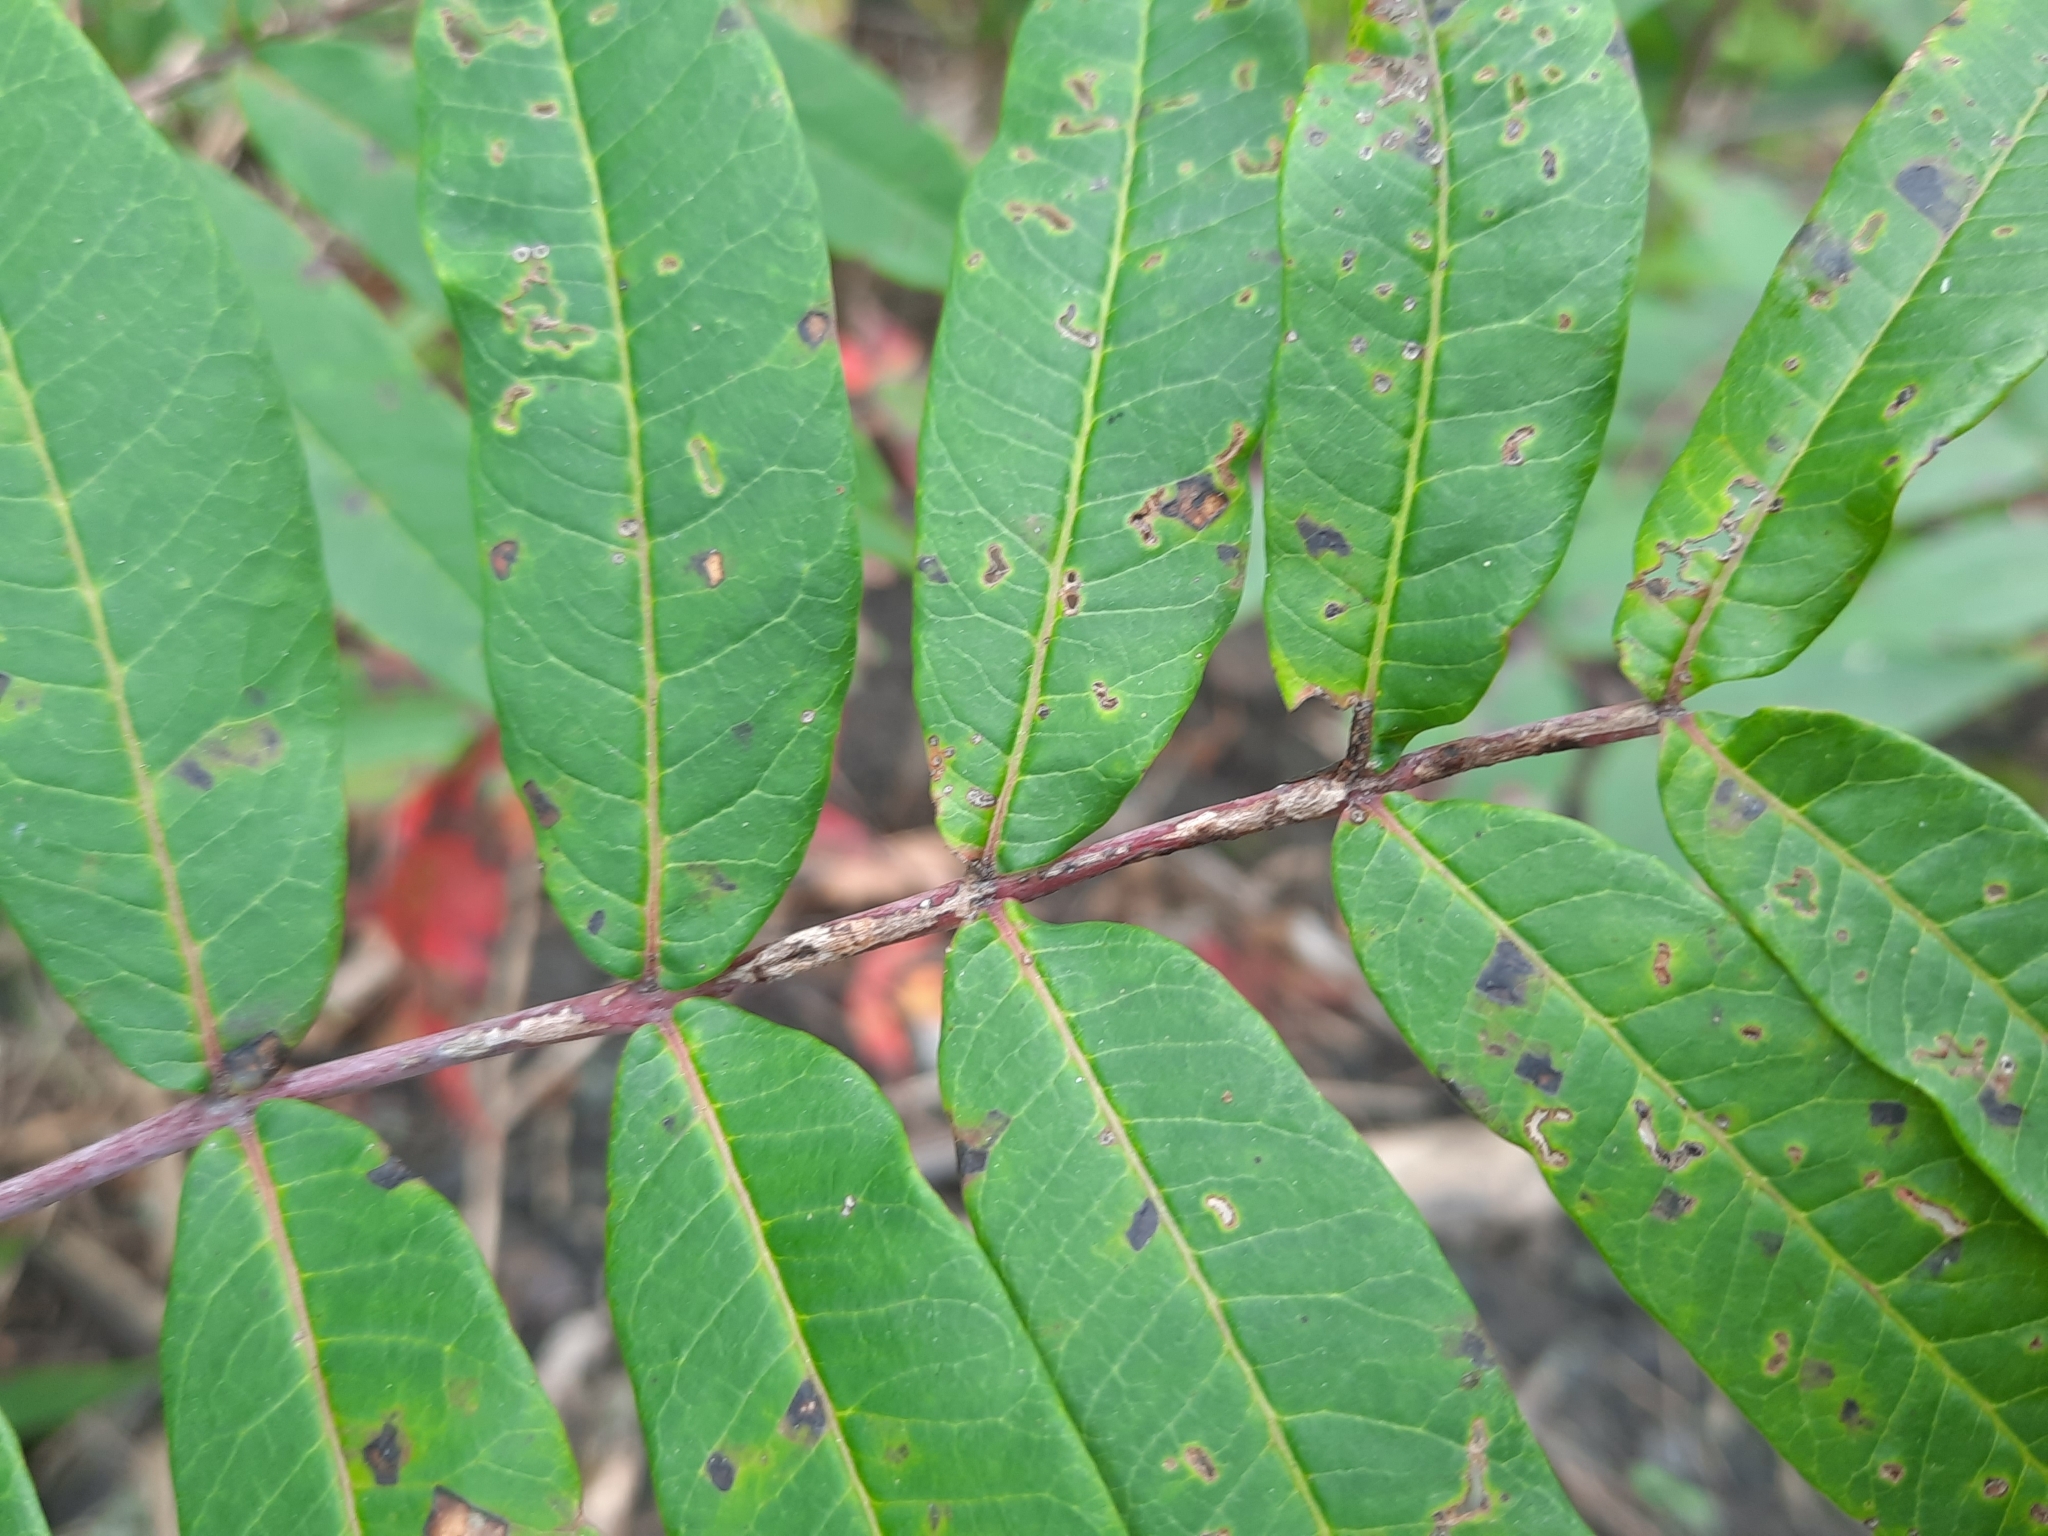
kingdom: Plantae
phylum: Tracheophyta
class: Magnoliopsida
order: Sapindales
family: Anacardiaceae
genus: Rhus
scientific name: Rhus glabra
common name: Scarlet sumac
